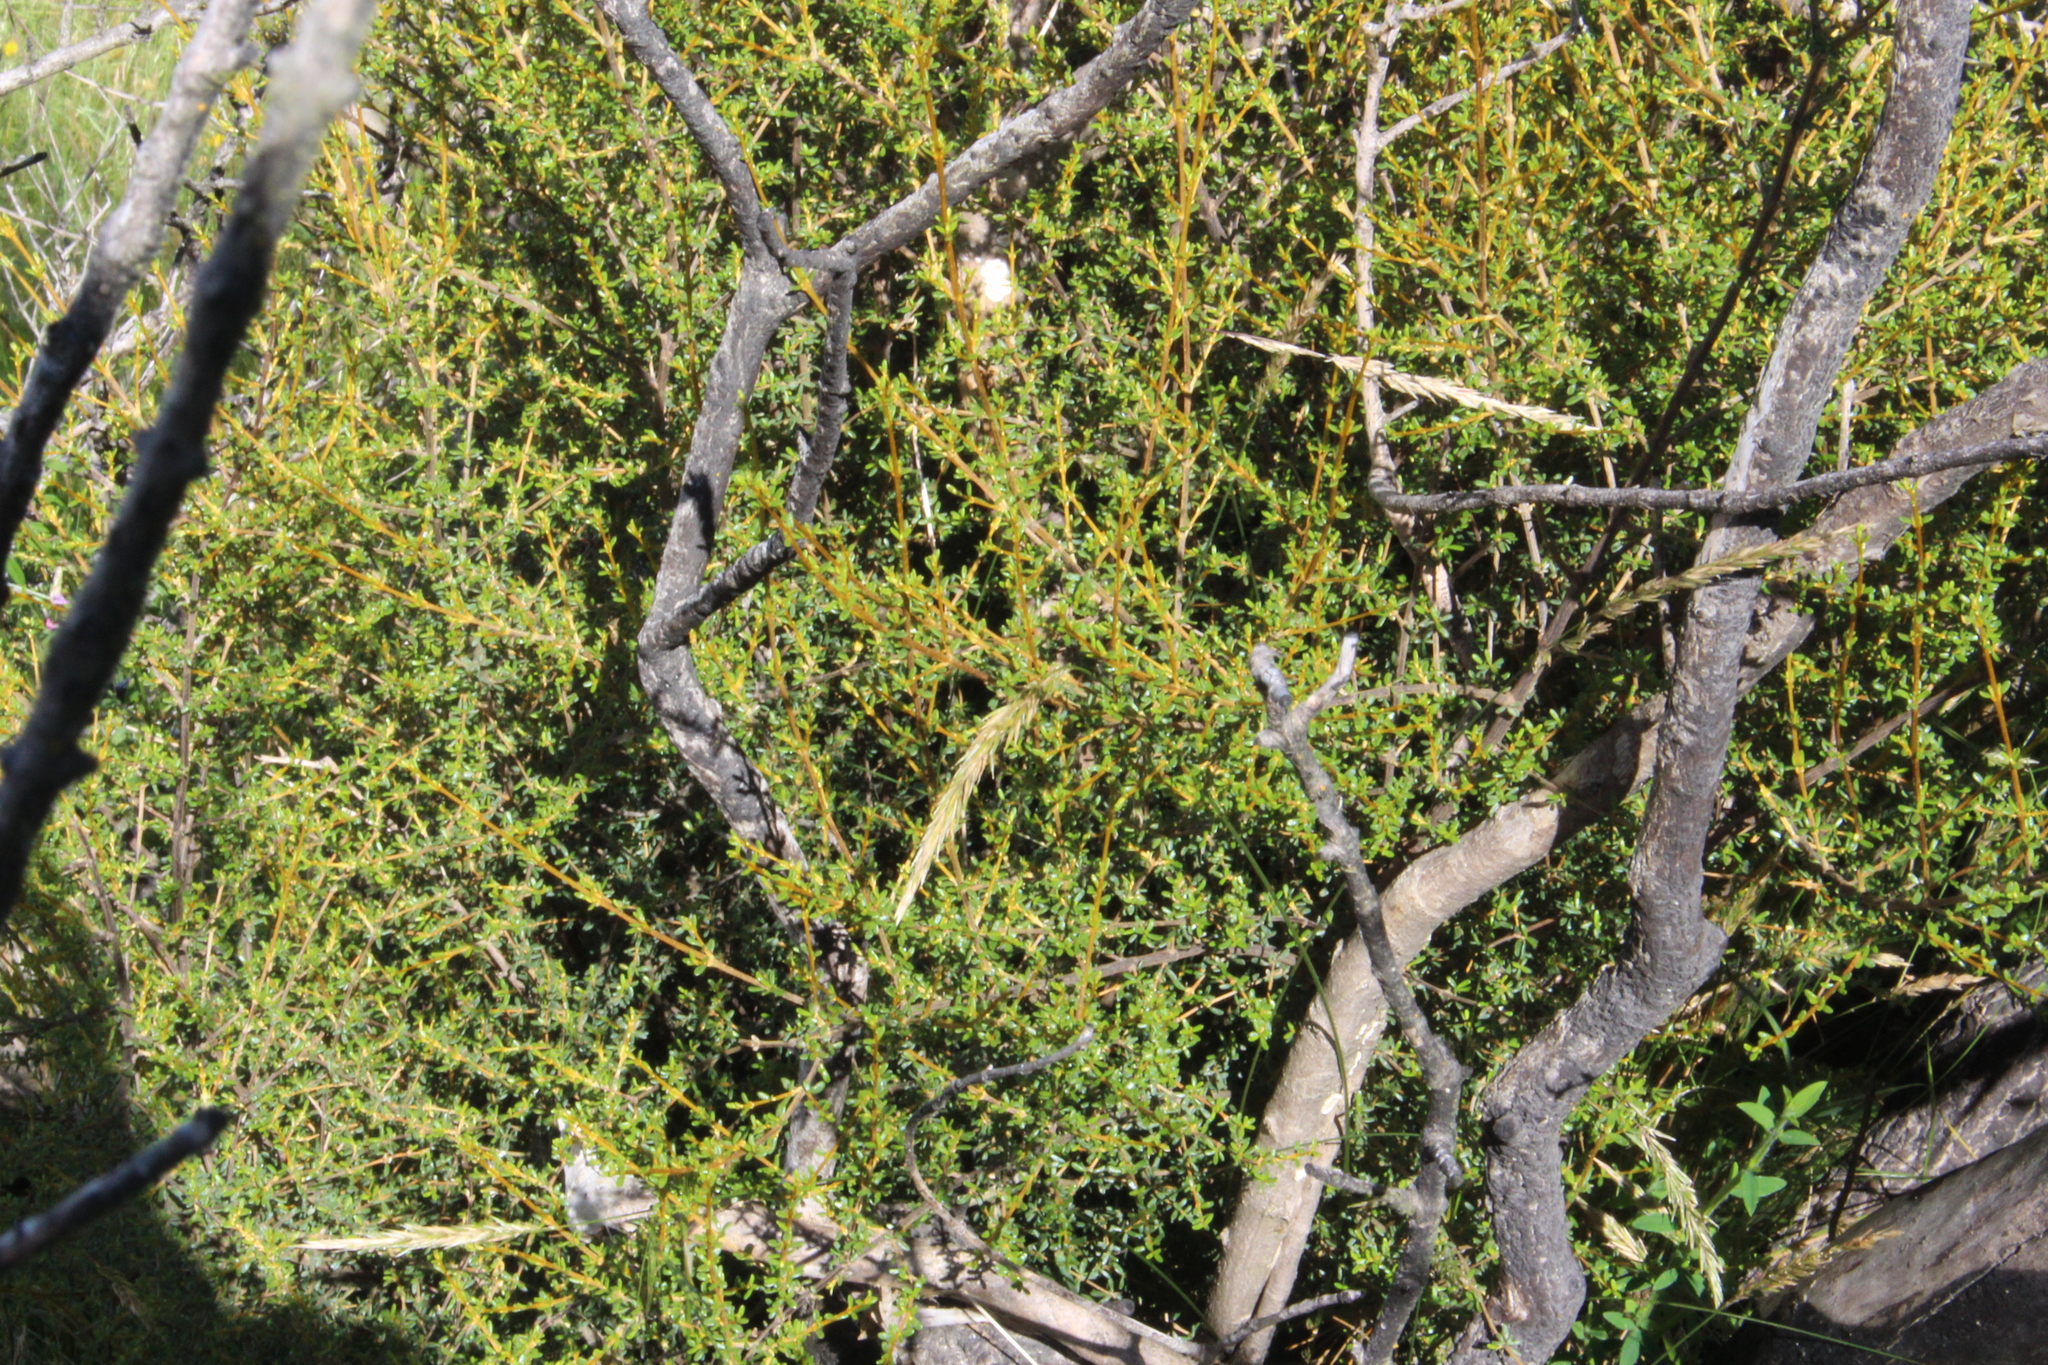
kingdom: Plantae
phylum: Tracheophyta
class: Magnoliopsida
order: Asterales
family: Asteraceae
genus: Olearia
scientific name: Olearia solandri
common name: Coastal daisybush
